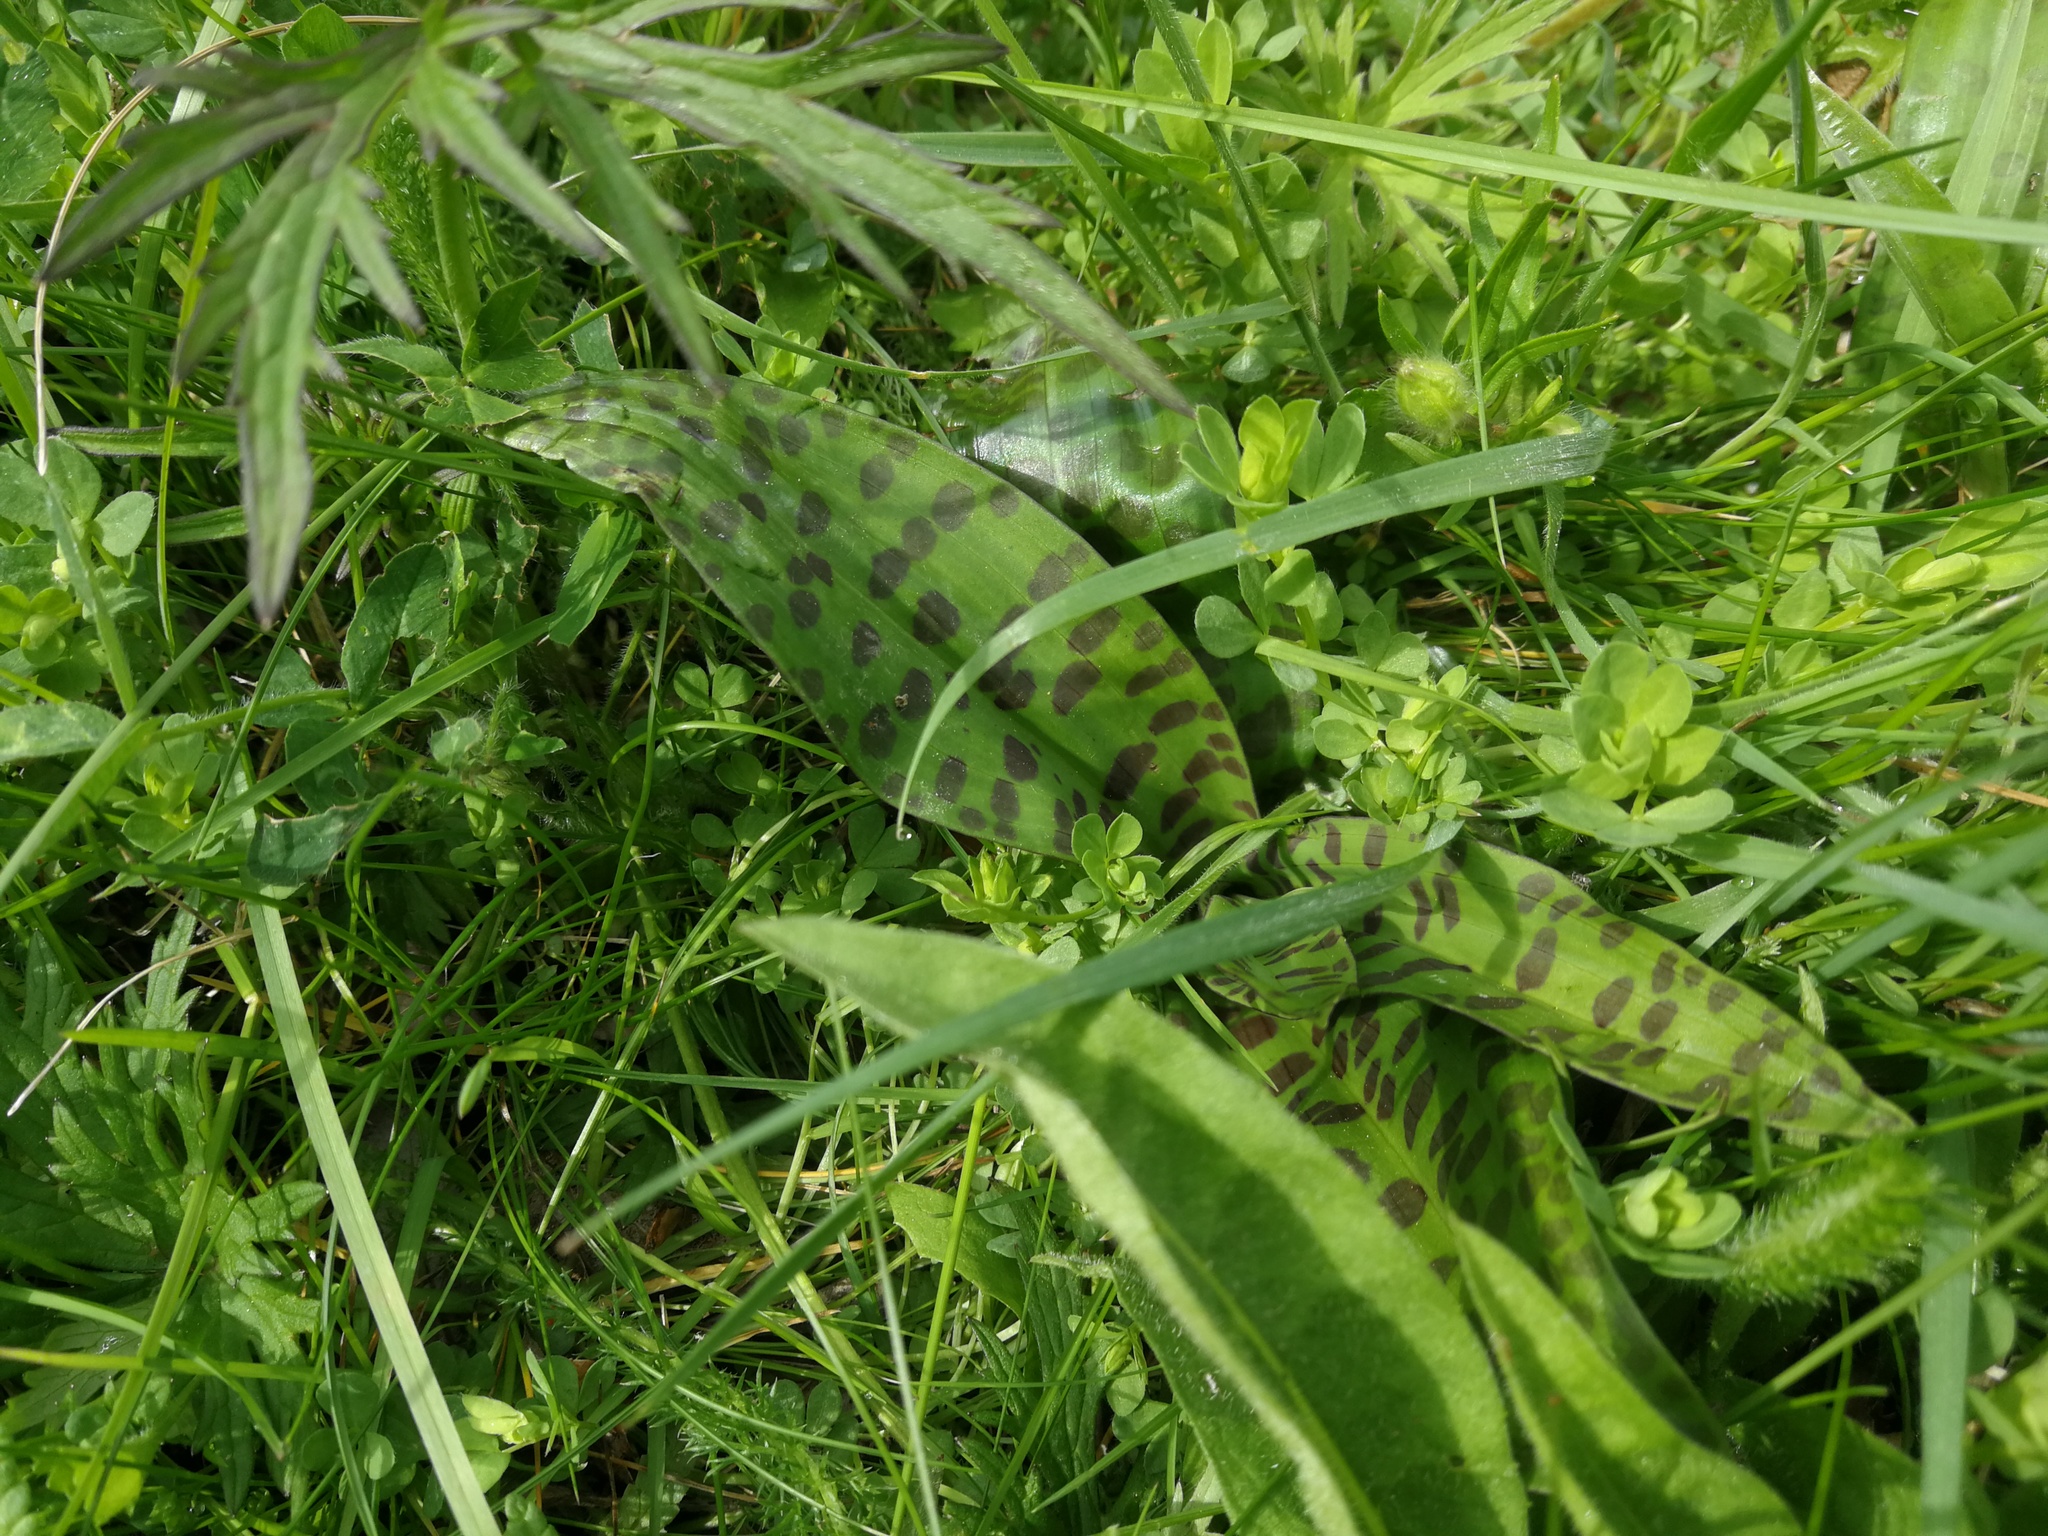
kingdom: Plantae
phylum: Tracheophyta
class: Liliopsida
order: Asparagales
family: Orchidaceae
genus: Dactylorhiza
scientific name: Dactylorhiza maculata
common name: Heath spotted-orchid
